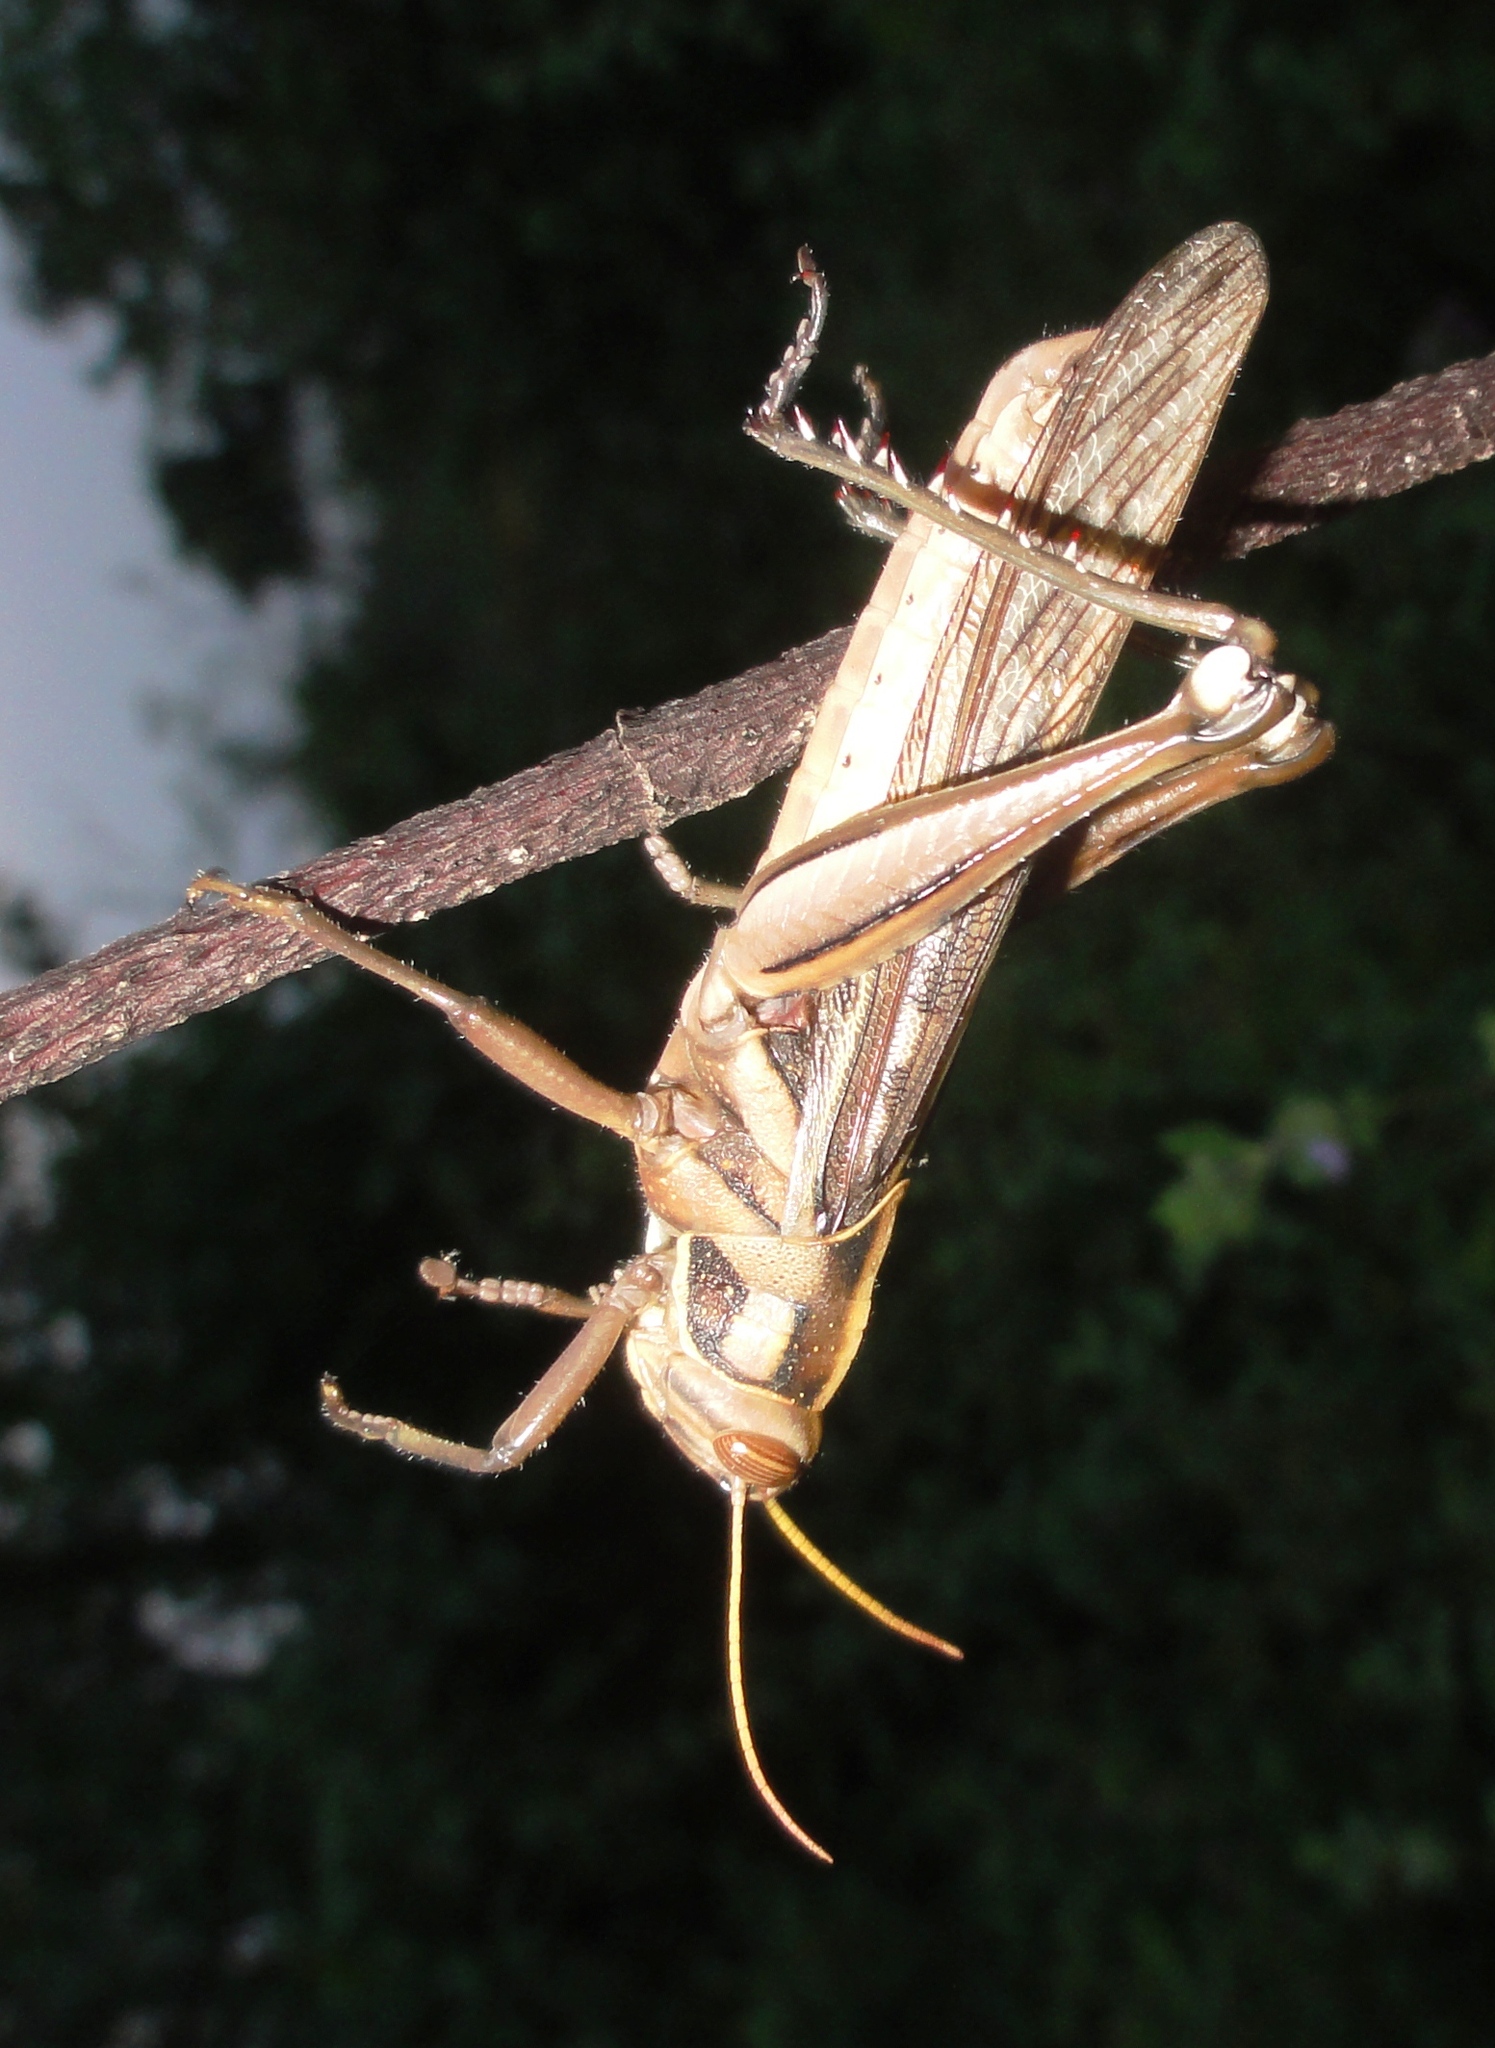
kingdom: Animalia
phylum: Arthropoda
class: Insecta
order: Orthoptera
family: Acrididae
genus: Cyrtacanthacris
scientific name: Cyrtacanthacris tatarica
